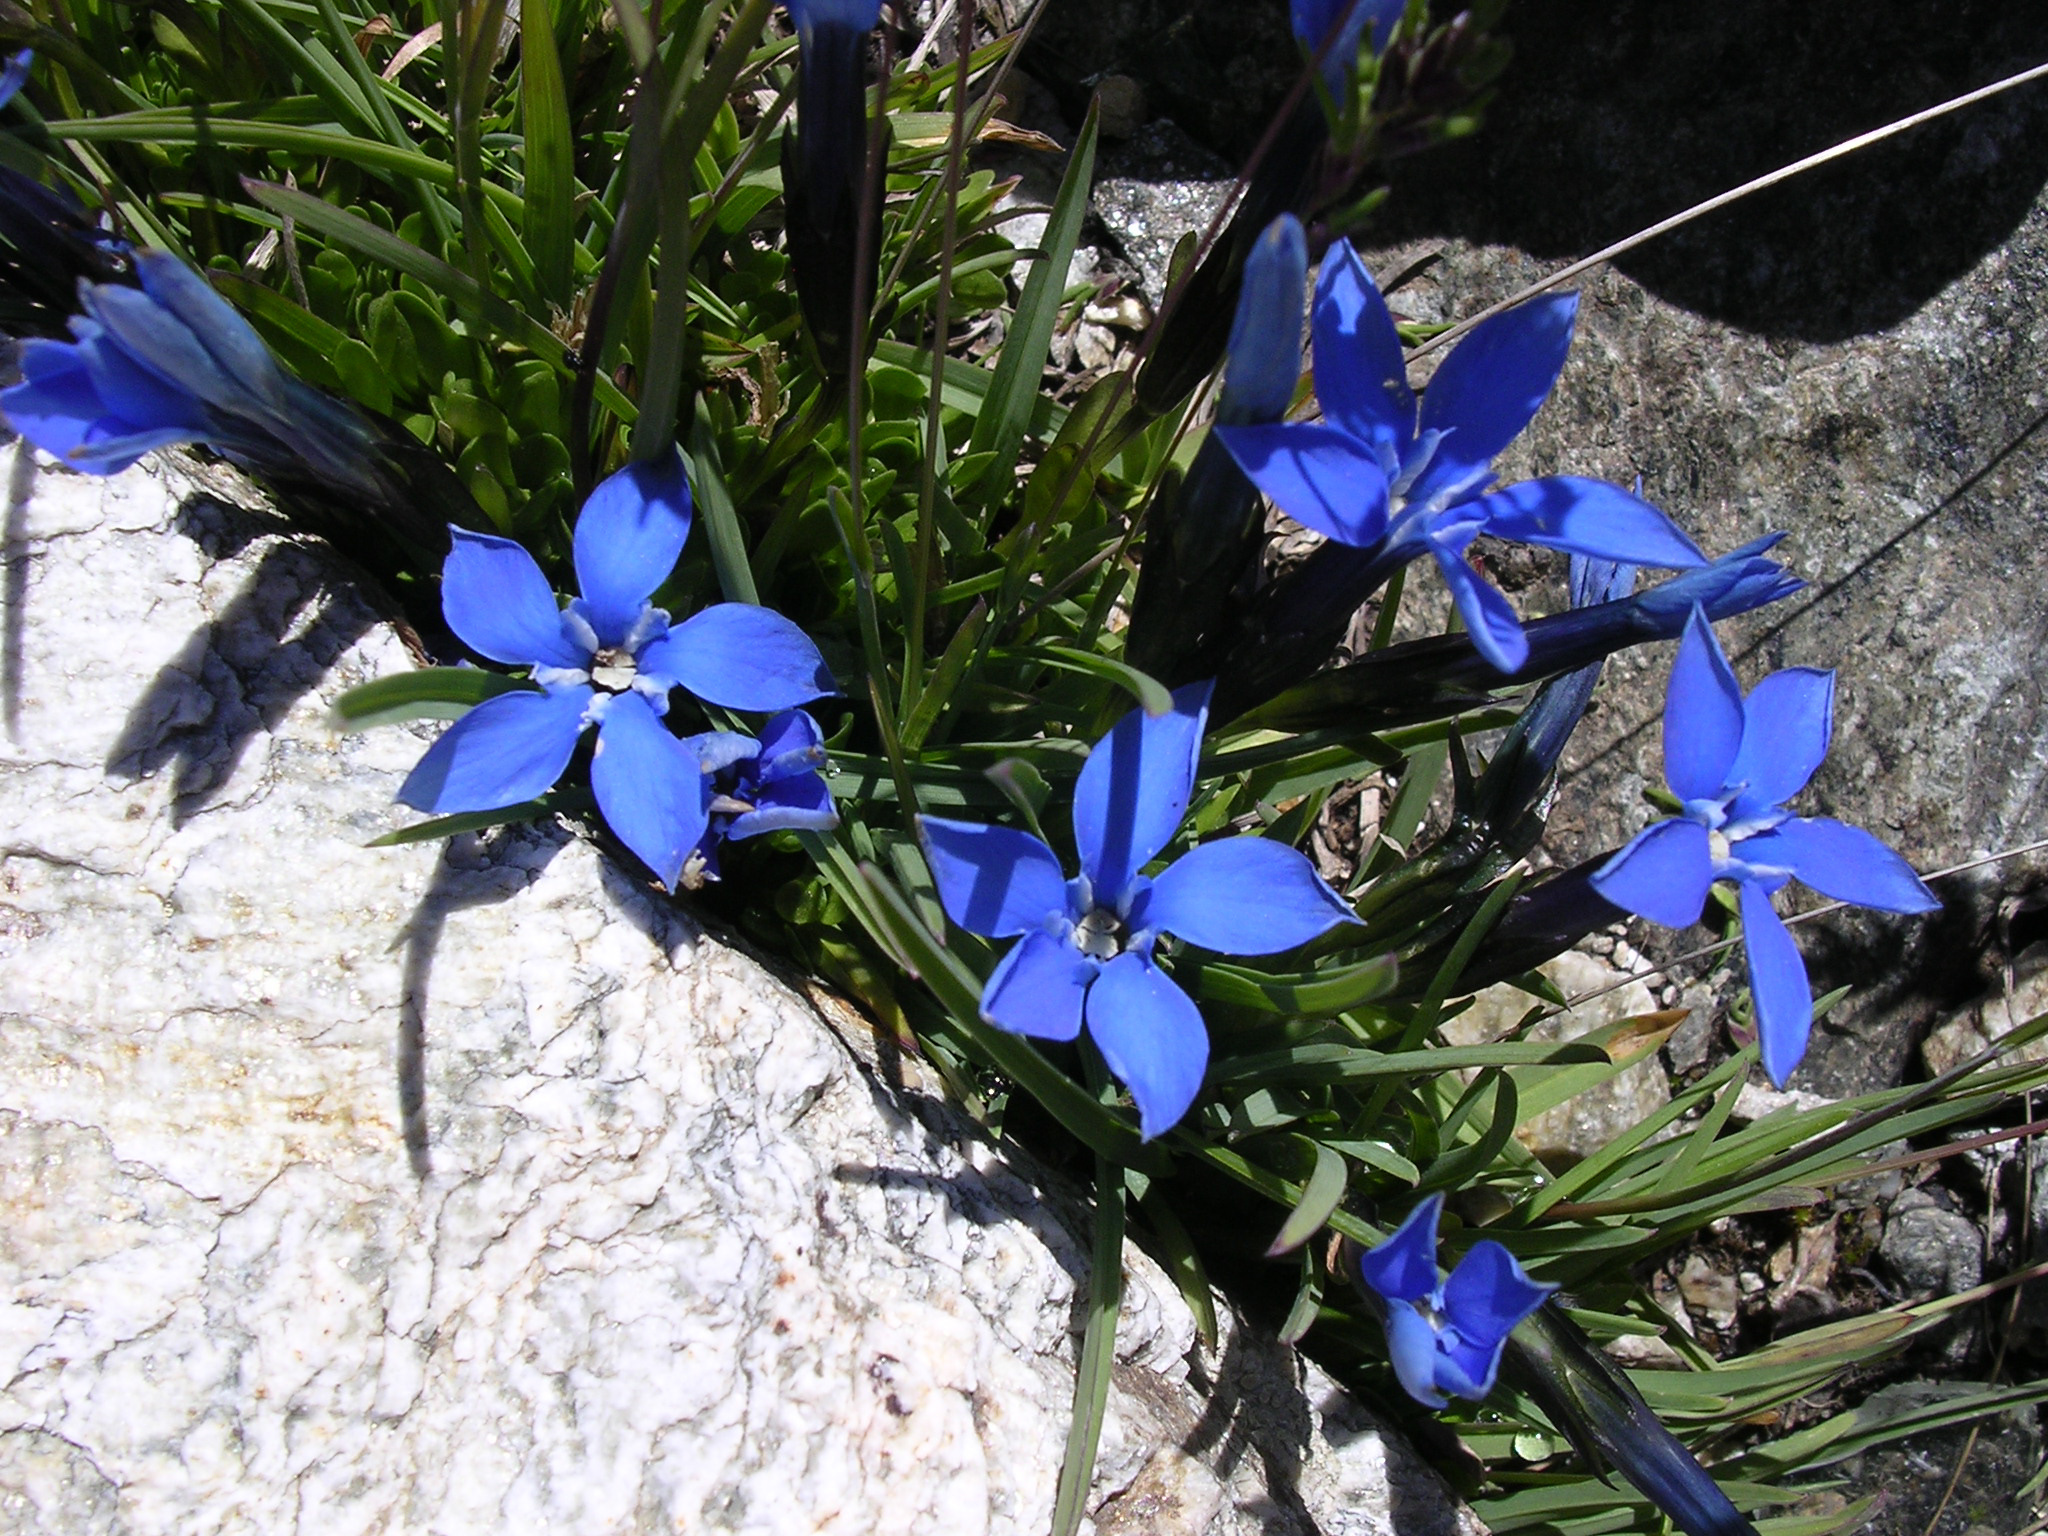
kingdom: Plantae
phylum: Tracheophyta
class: Magnoliopsida
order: Gentianales
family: Gentianaceae
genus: Gentiana
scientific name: Gentiana bavarica
